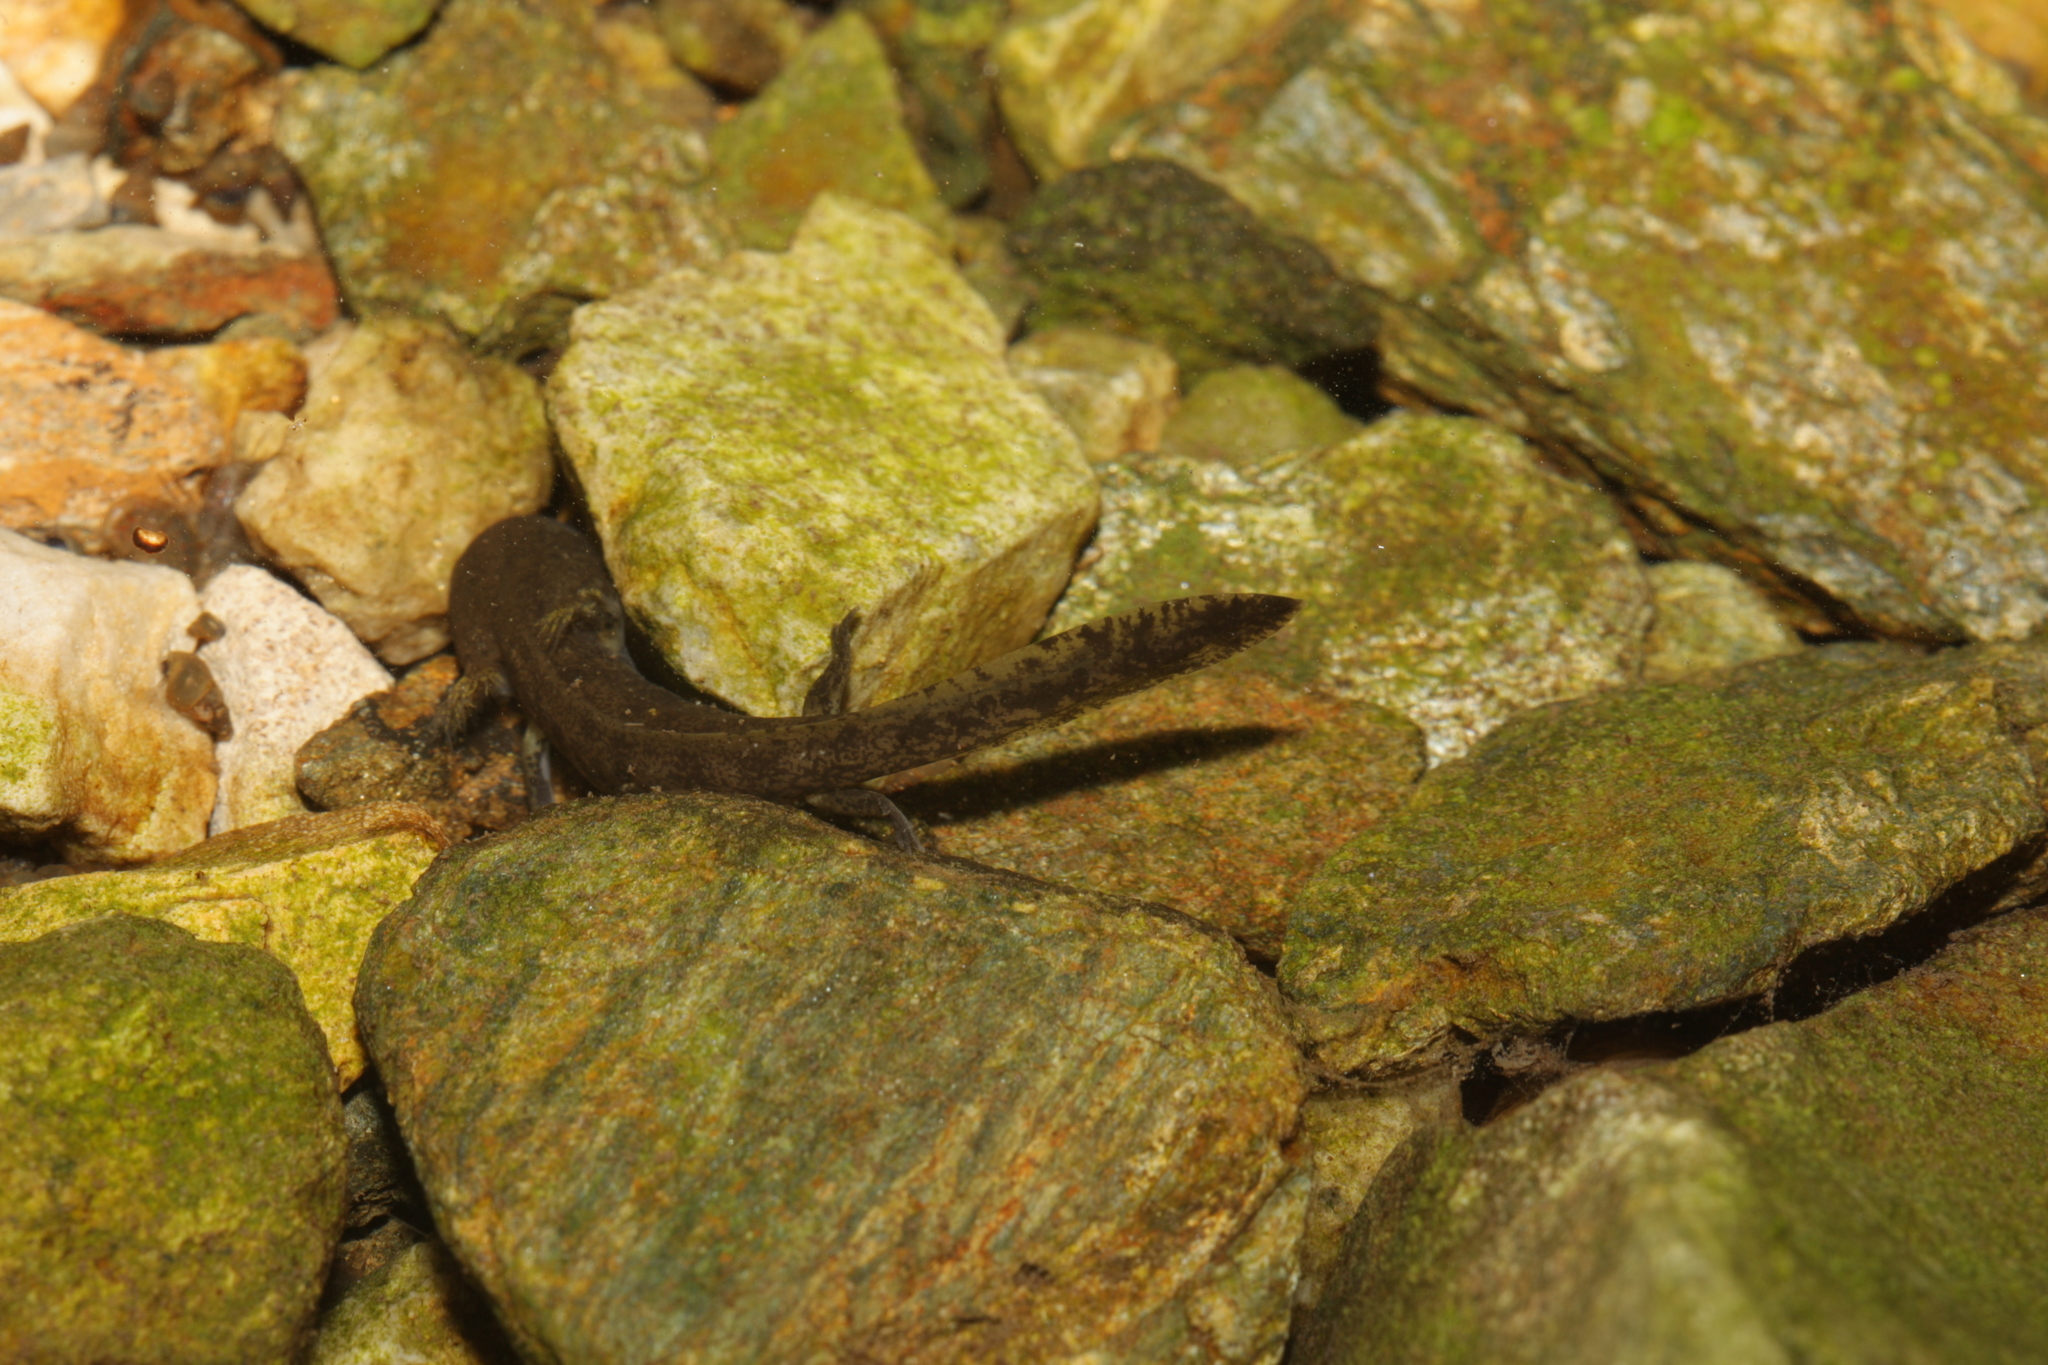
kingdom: Animalia
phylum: Chordata
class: Amphibia
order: Caudata
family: Salamandridae
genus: Salamandra
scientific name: Salamandra salamandra
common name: Fire salamander
